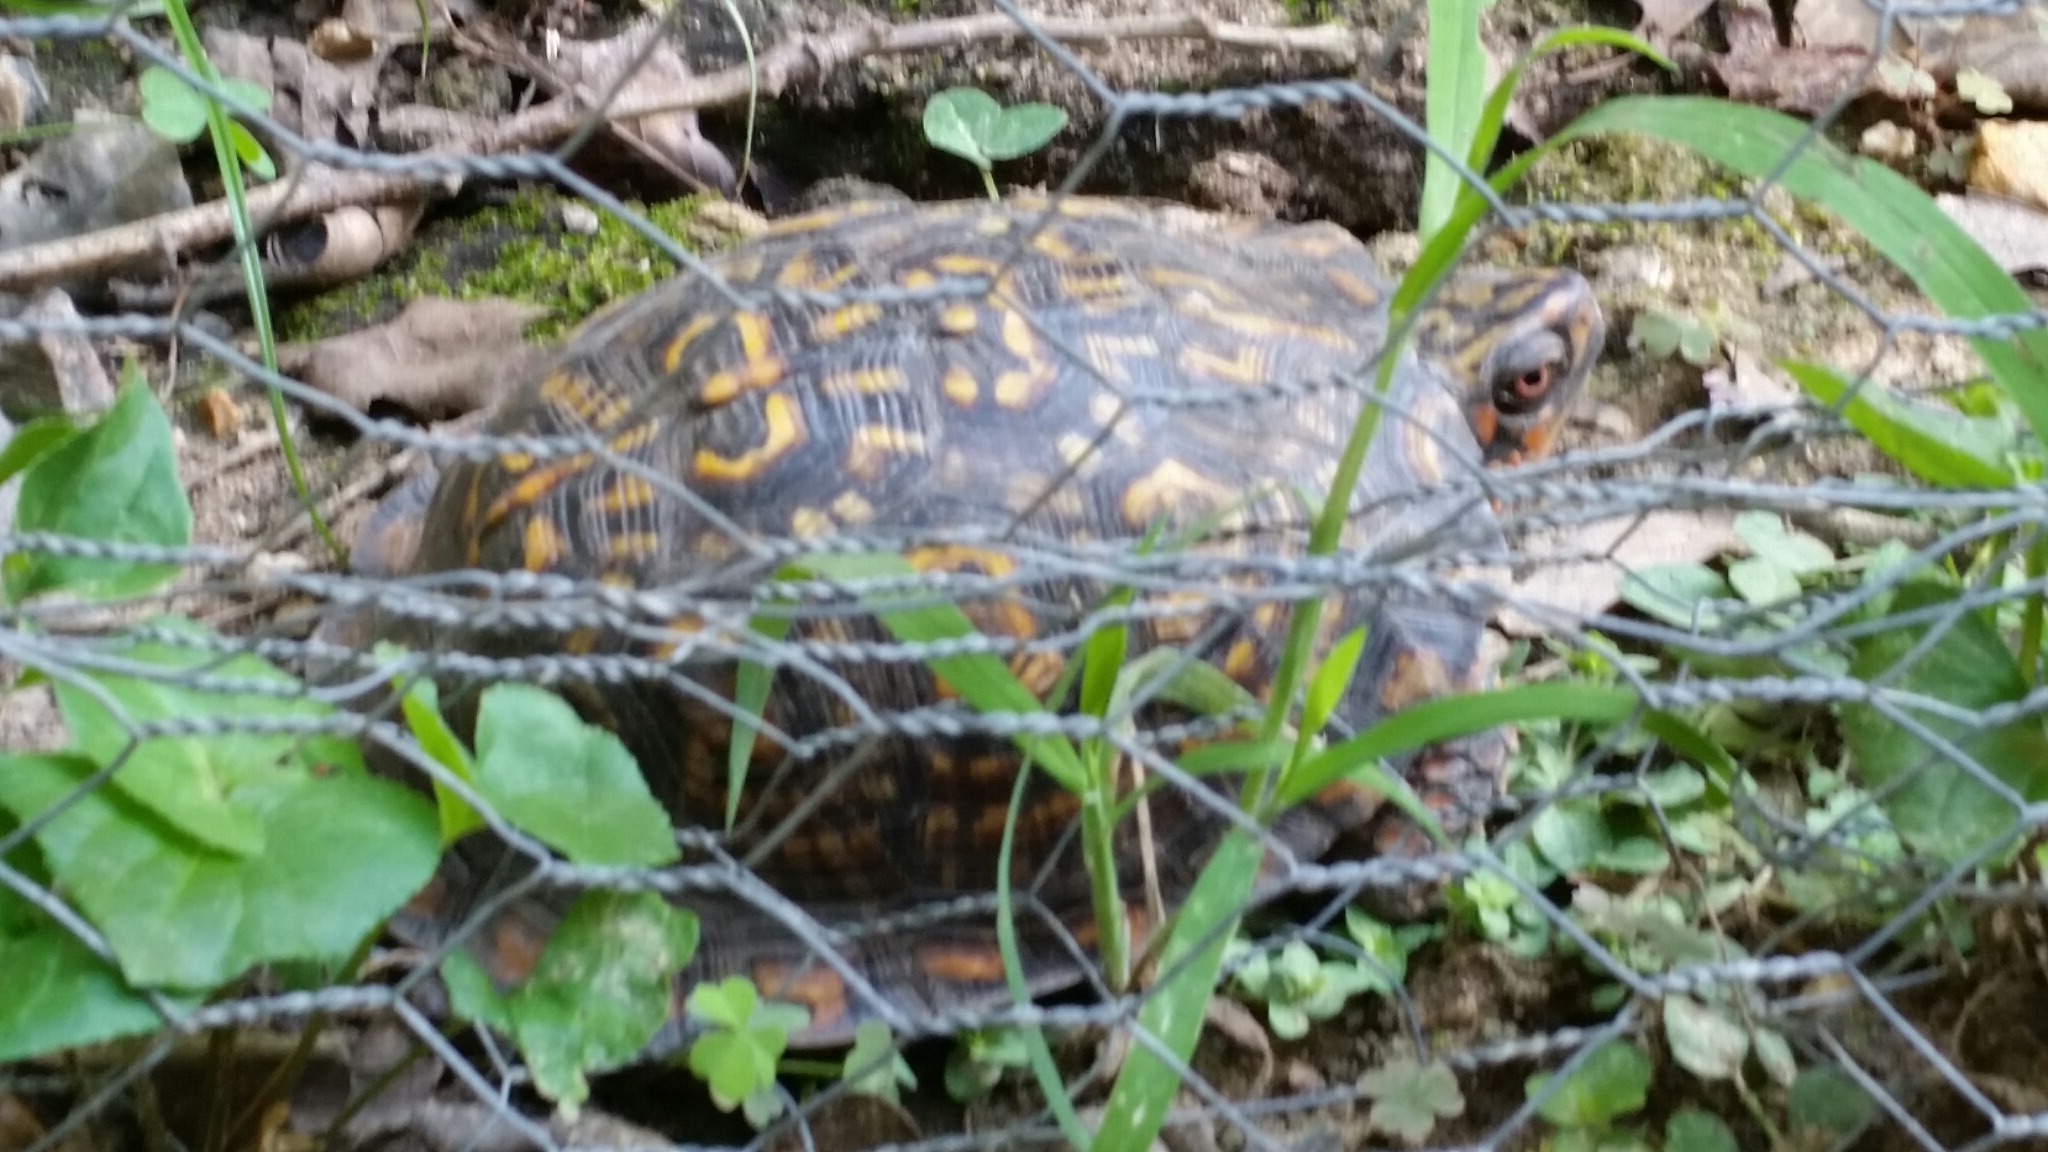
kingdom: Animalia
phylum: Chordata
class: Testudines
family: Emydidae
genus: Terrapene
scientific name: Terrapene carolina
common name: Common box turtle
